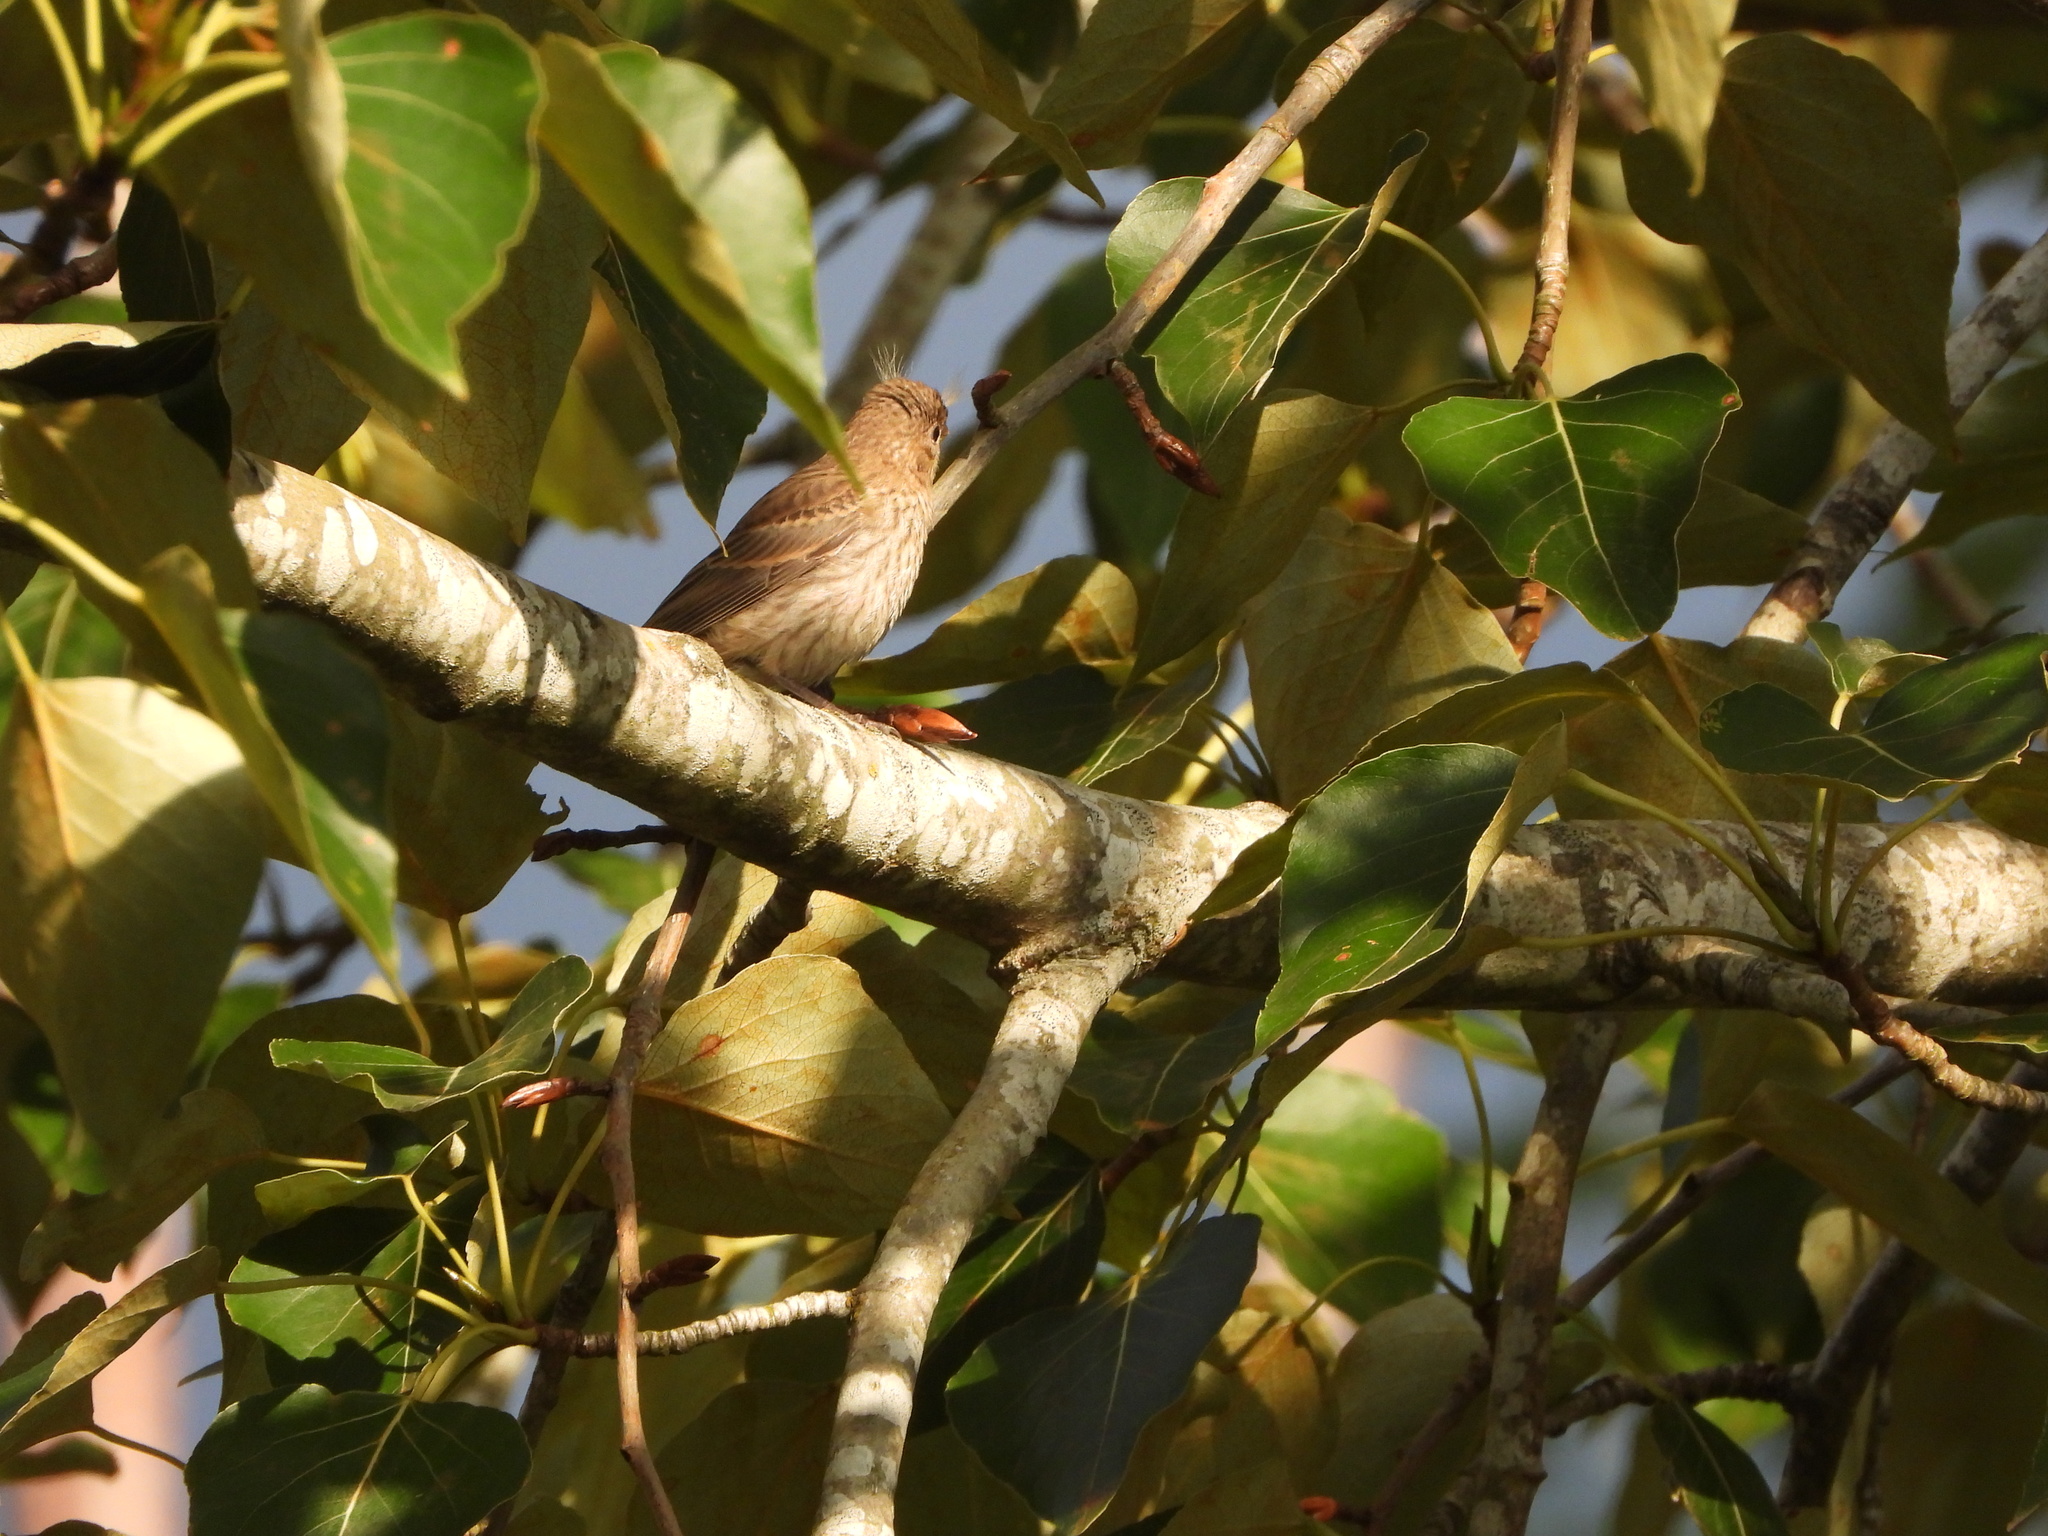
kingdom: Animalia
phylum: Chordata
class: Aves
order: Passeriformes
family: Fringillidae
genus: Haemorhous
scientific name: Haemorhous mexicanus
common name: House finch
